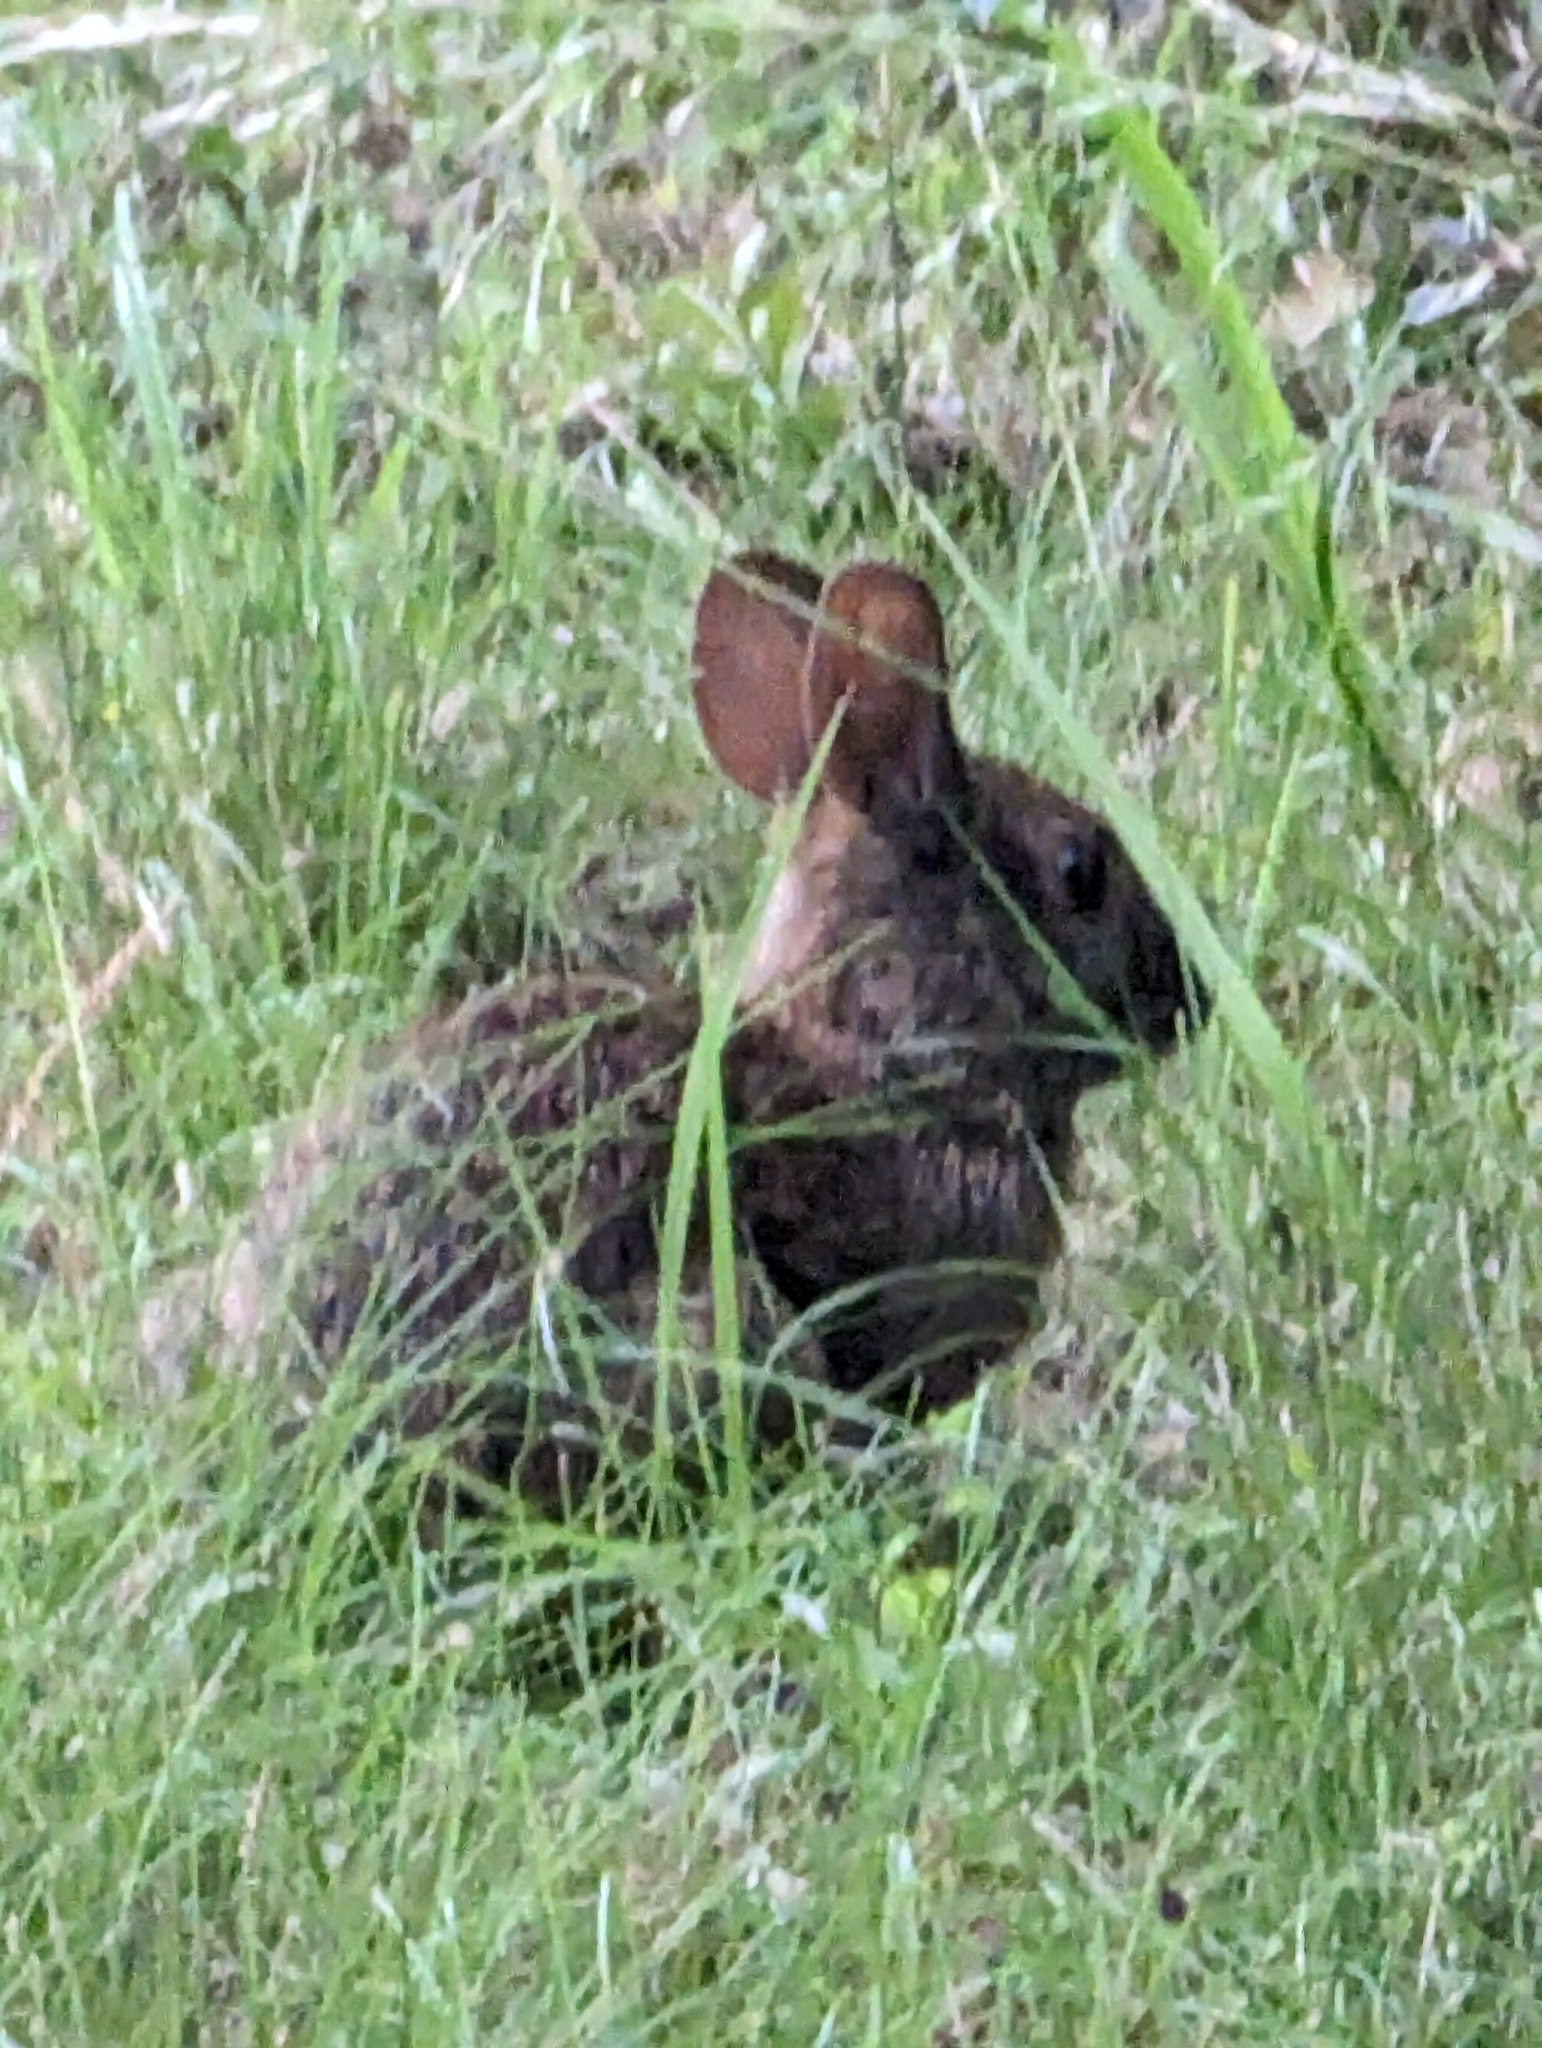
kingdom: Animalia
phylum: Chordata
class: Mammalia
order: Lagomorpha
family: Leporidae
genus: Sylvilagus
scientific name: Sylvilagus palustris
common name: Marsh rabbit
